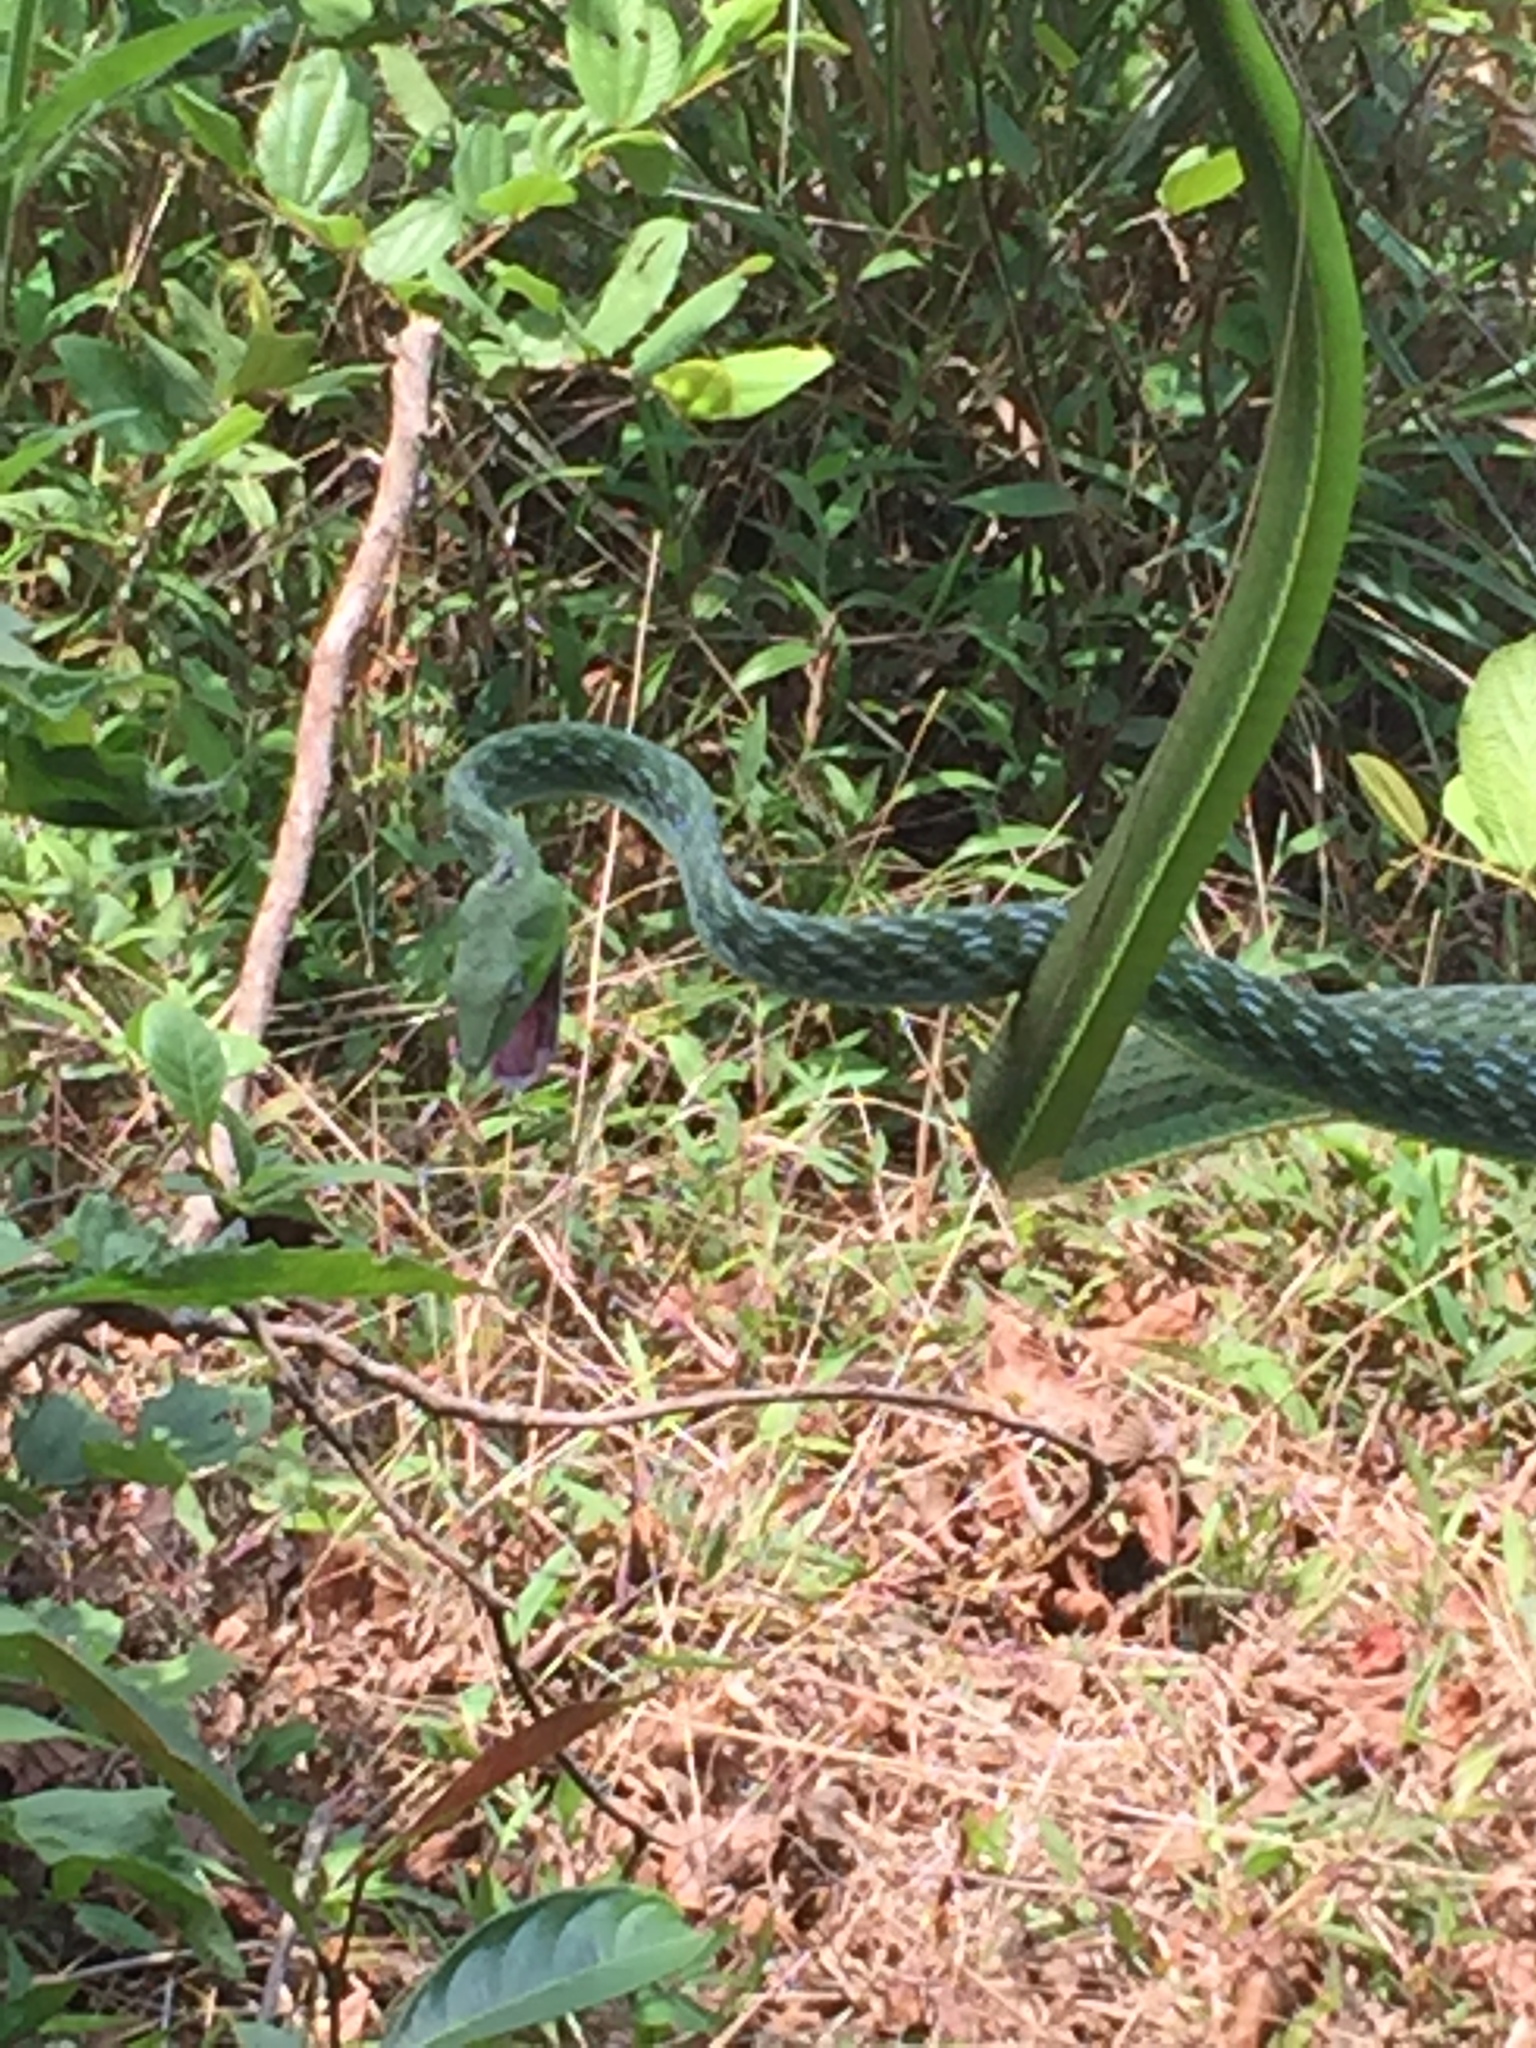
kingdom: Animalia
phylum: Chordata
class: Squamata
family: Colubridae
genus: Ahaetulla
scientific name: Ahaetulla malabarica
